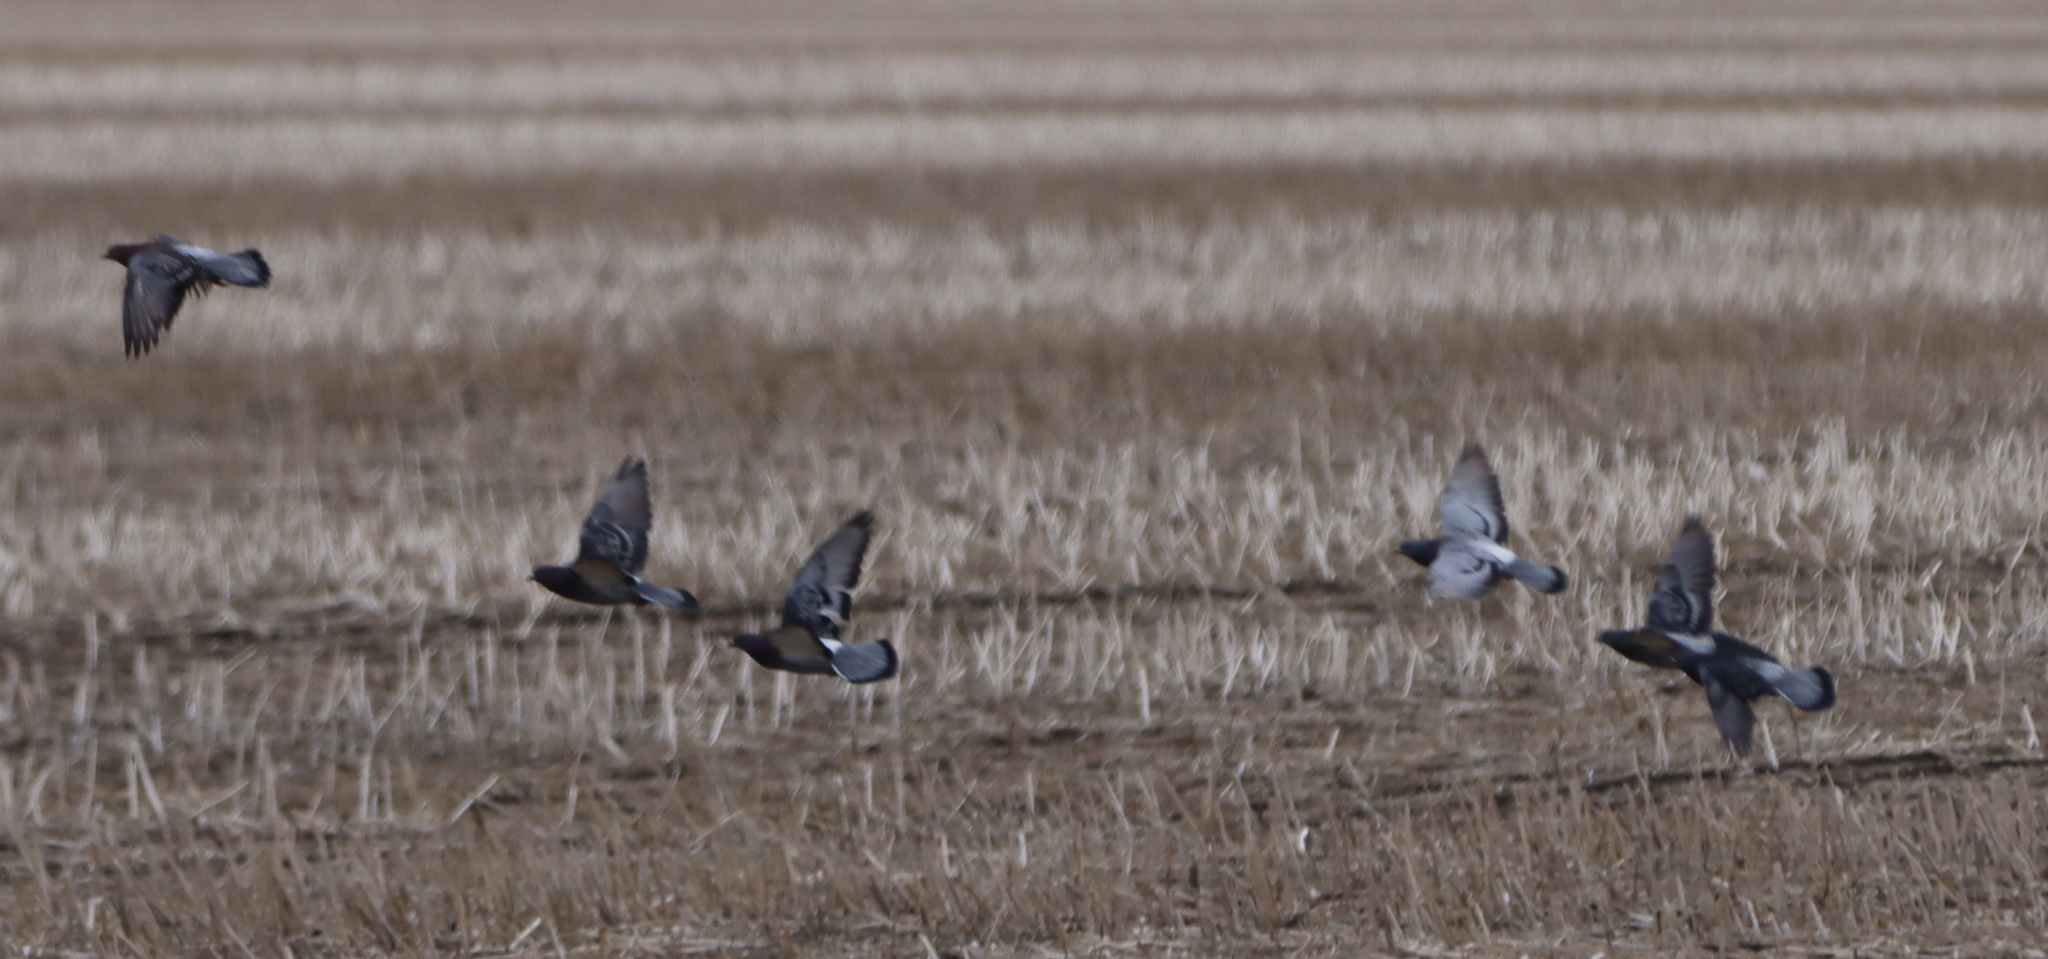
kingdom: Animalia
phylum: Chordata
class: Aves
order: Columbiformes
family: Columbidae
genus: Columba
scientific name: Columba livia
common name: Rock pigeon
